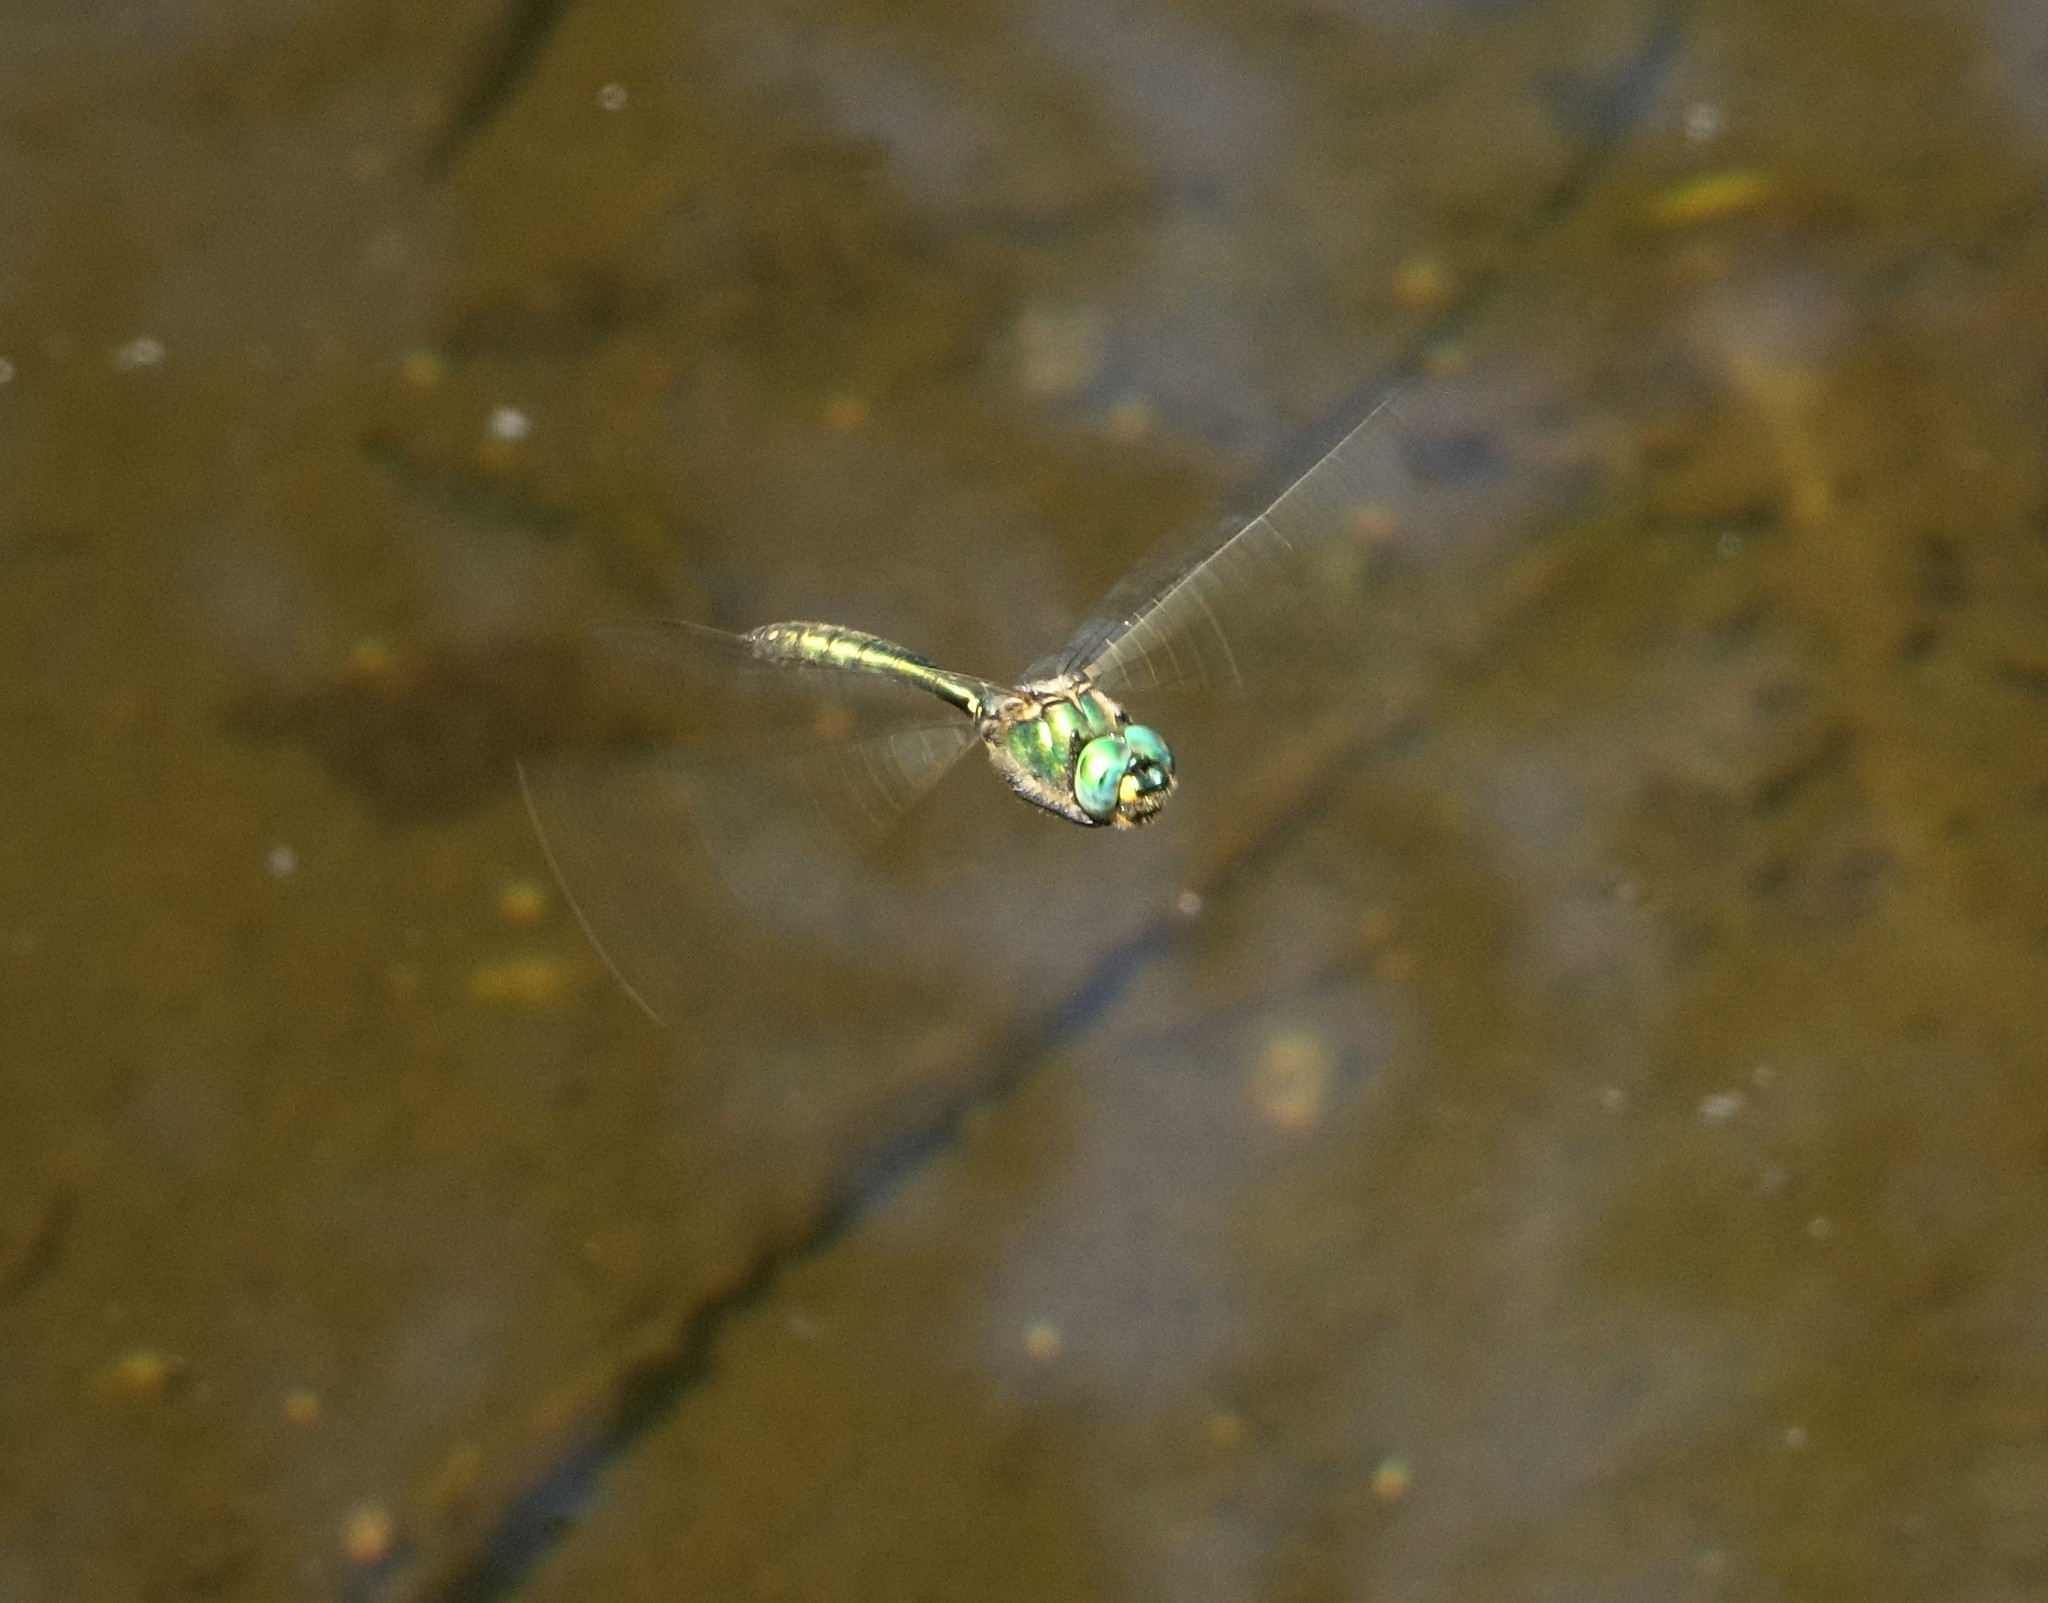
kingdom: Animalia
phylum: Arthropoda
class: Insecta
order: Odonata
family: Corduliidae
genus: Somatochlora
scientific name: Somatochlora metallica
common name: Brilliant emerald
